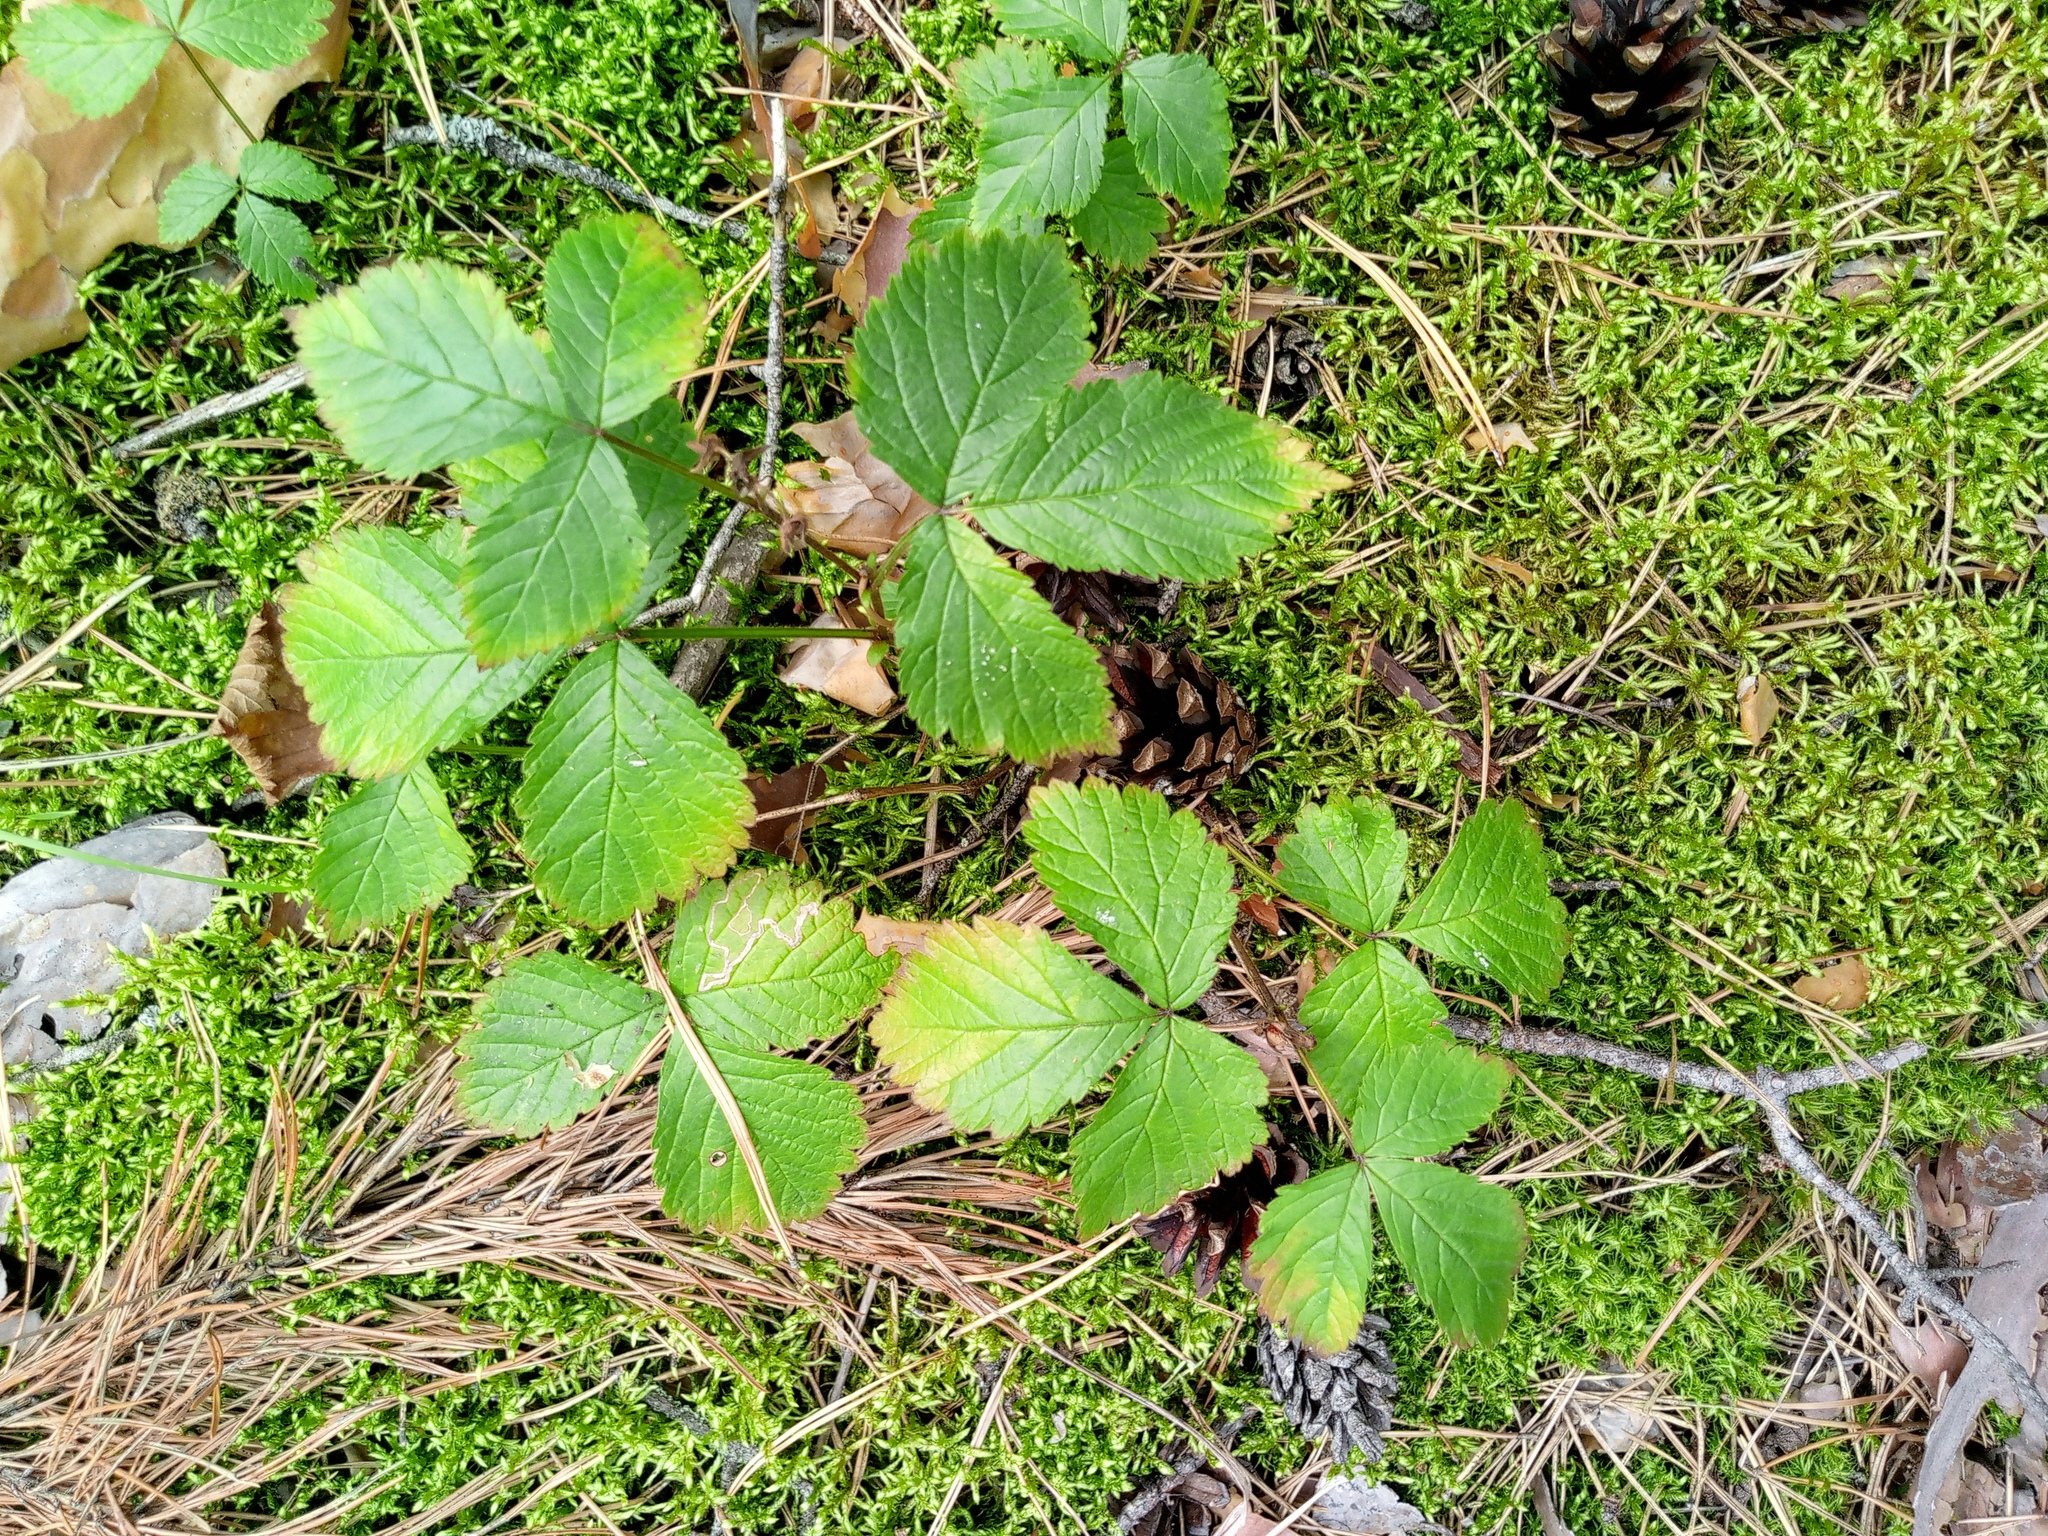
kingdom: Plantae
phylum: Tracheophyta
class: Magnoliopsida
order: Rosales
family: Rosaceae
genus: Rubus
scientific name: Rubus saxatilis
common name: Stone bramble
